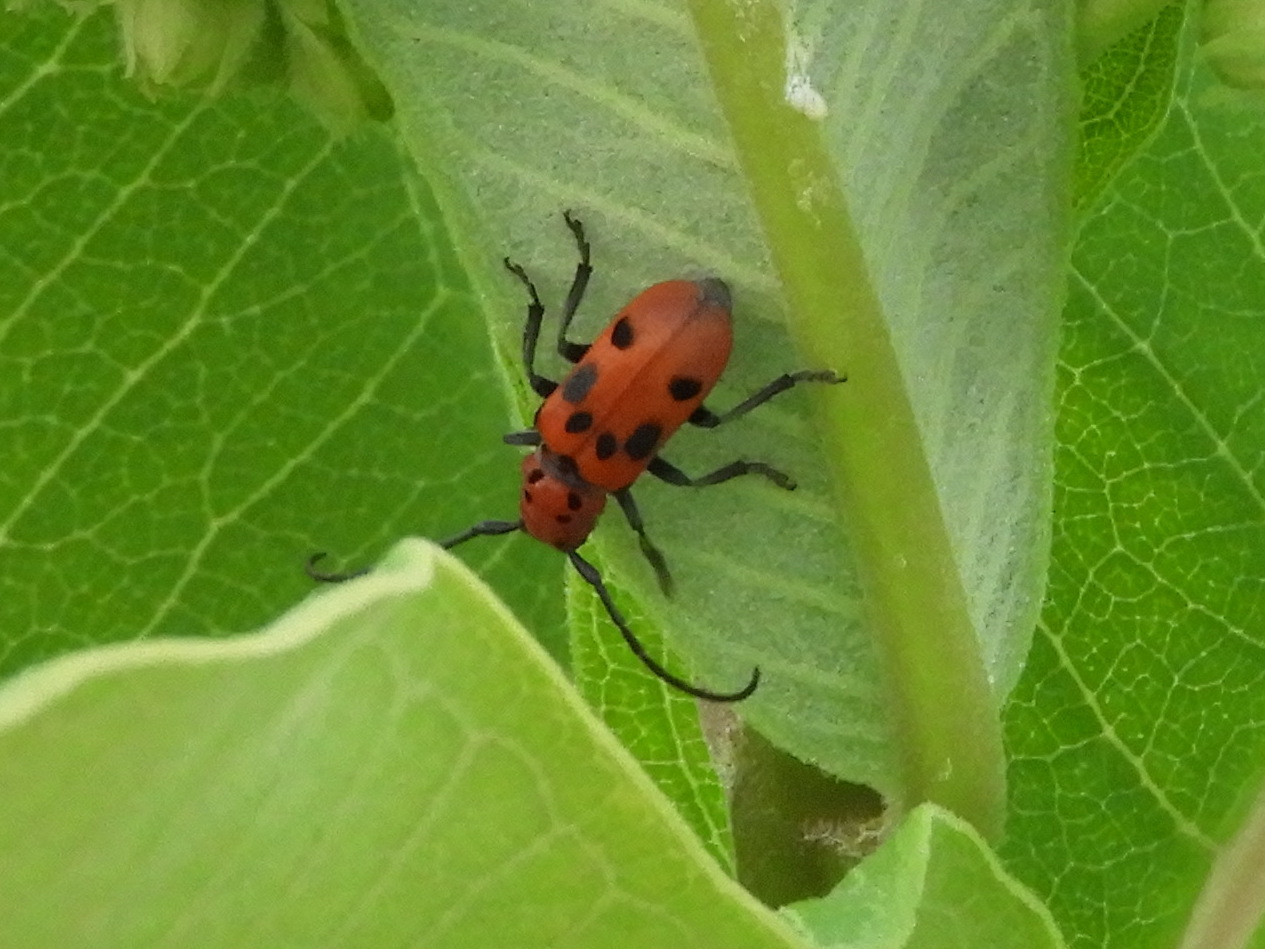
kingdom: Animalia
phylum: Arthropoda
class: Insecta
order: Coleoptera
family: Cerambycidae
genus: Tetraopes
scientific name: Tetraopes tetrophthalmus
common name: Red milkweed beetle
